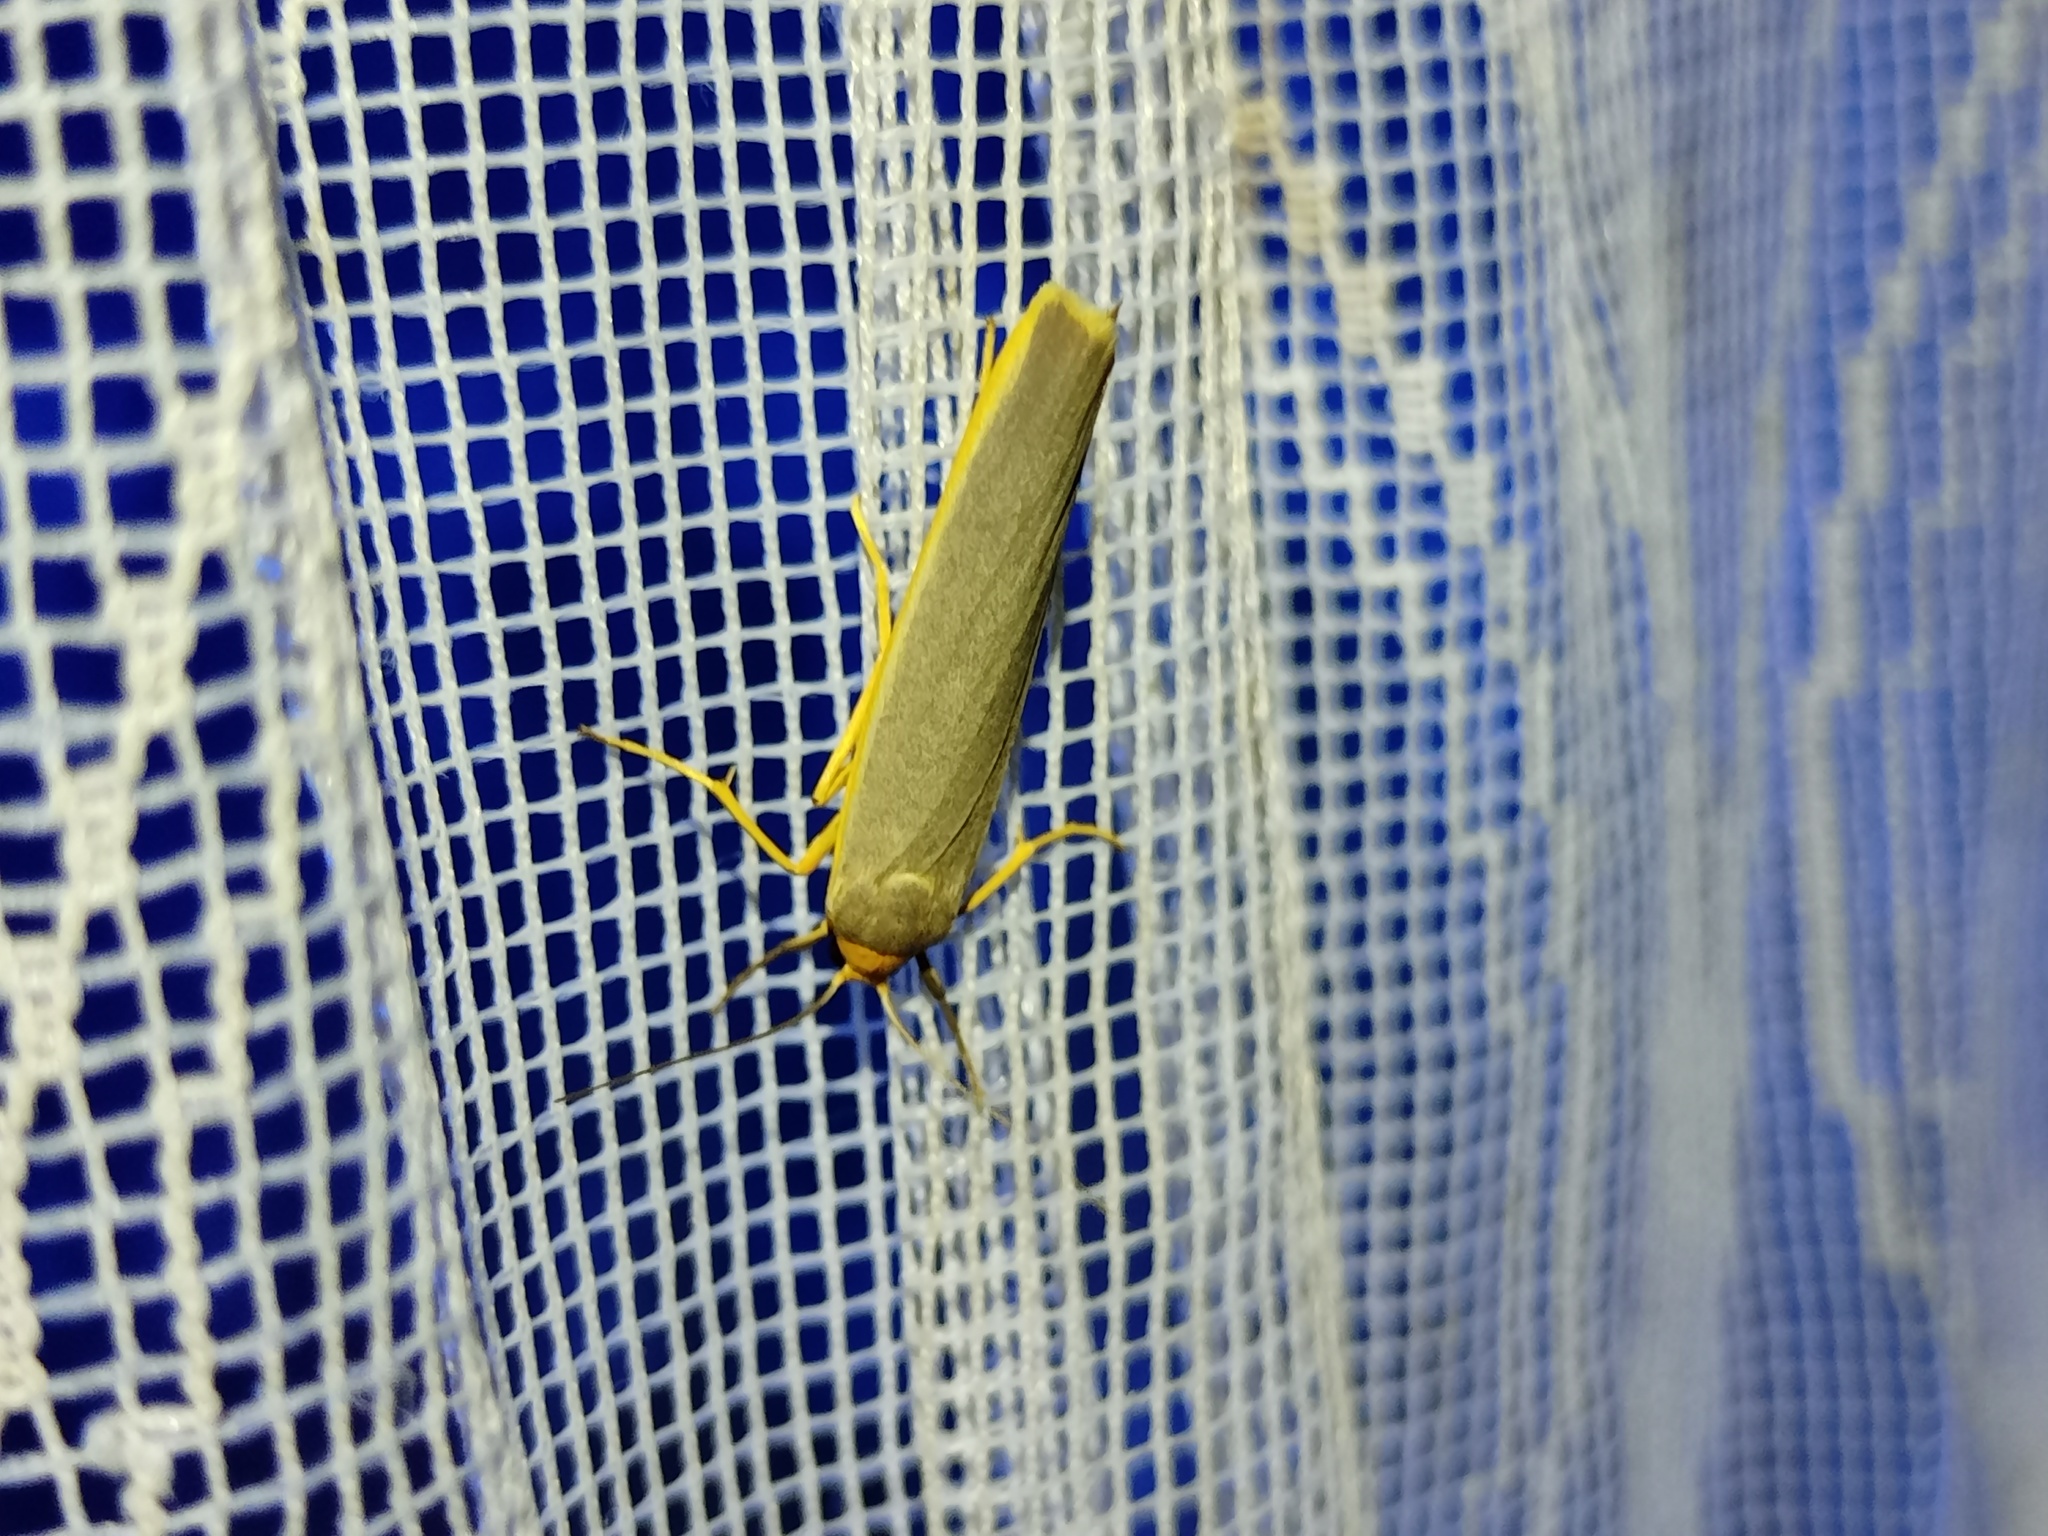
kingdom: Animalia
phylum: Arthropoda
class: Insecta
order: Lepidoptera
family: Erebidae
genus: Manulea
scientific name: Manulea complana
